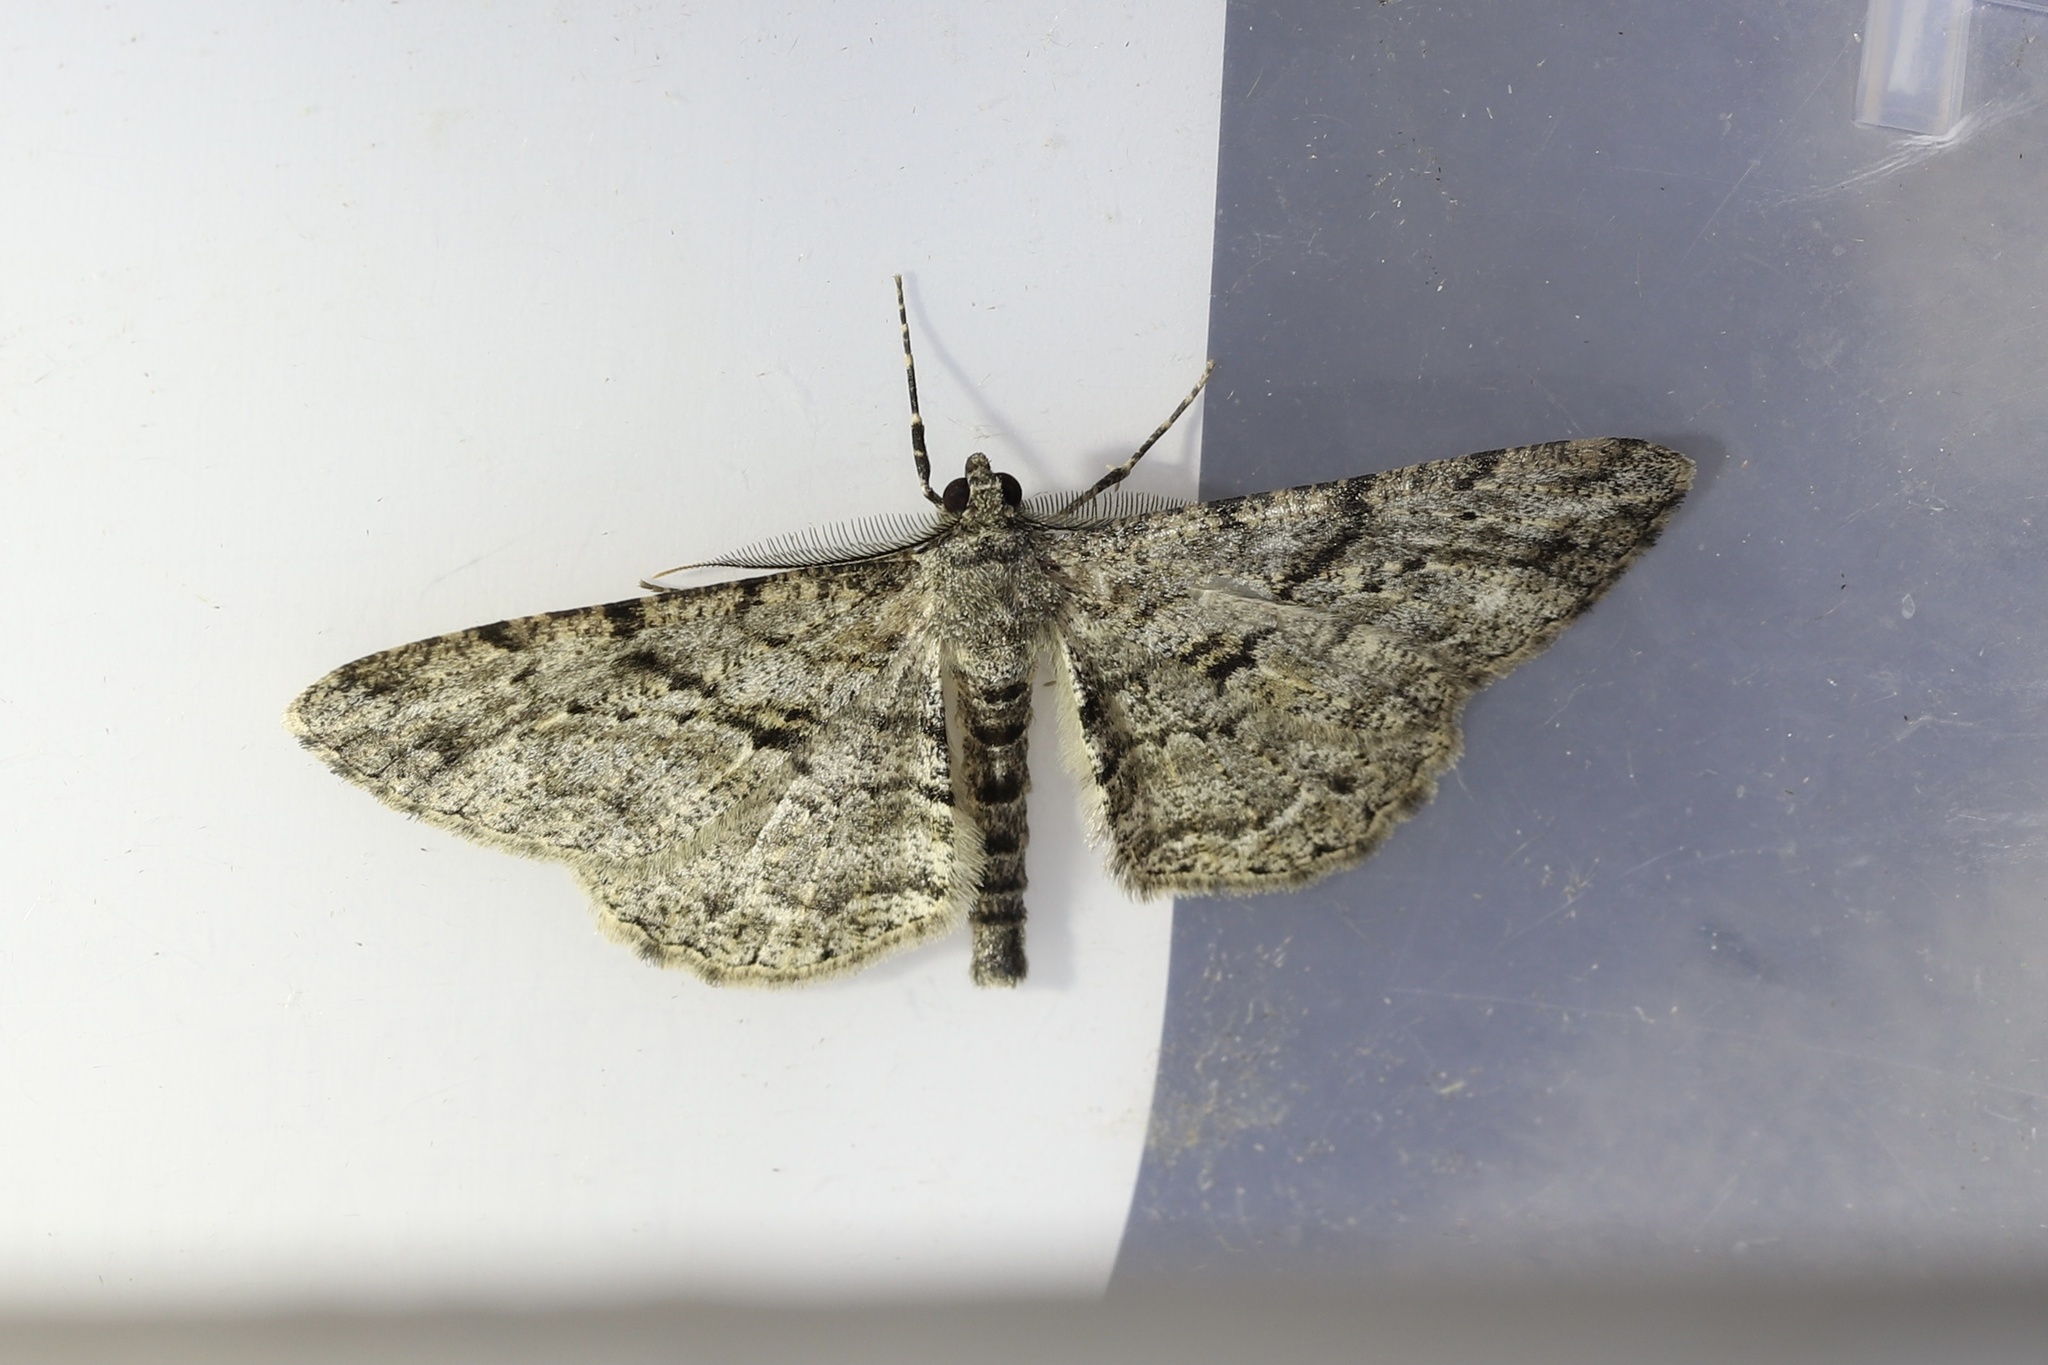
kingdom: Animalia
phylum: Arthropoda
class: Insecta
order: Lepidoptera
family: Geometridae
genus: Peribatodes
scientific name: Peribatodes rhomboidaria
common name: Willow beauty
